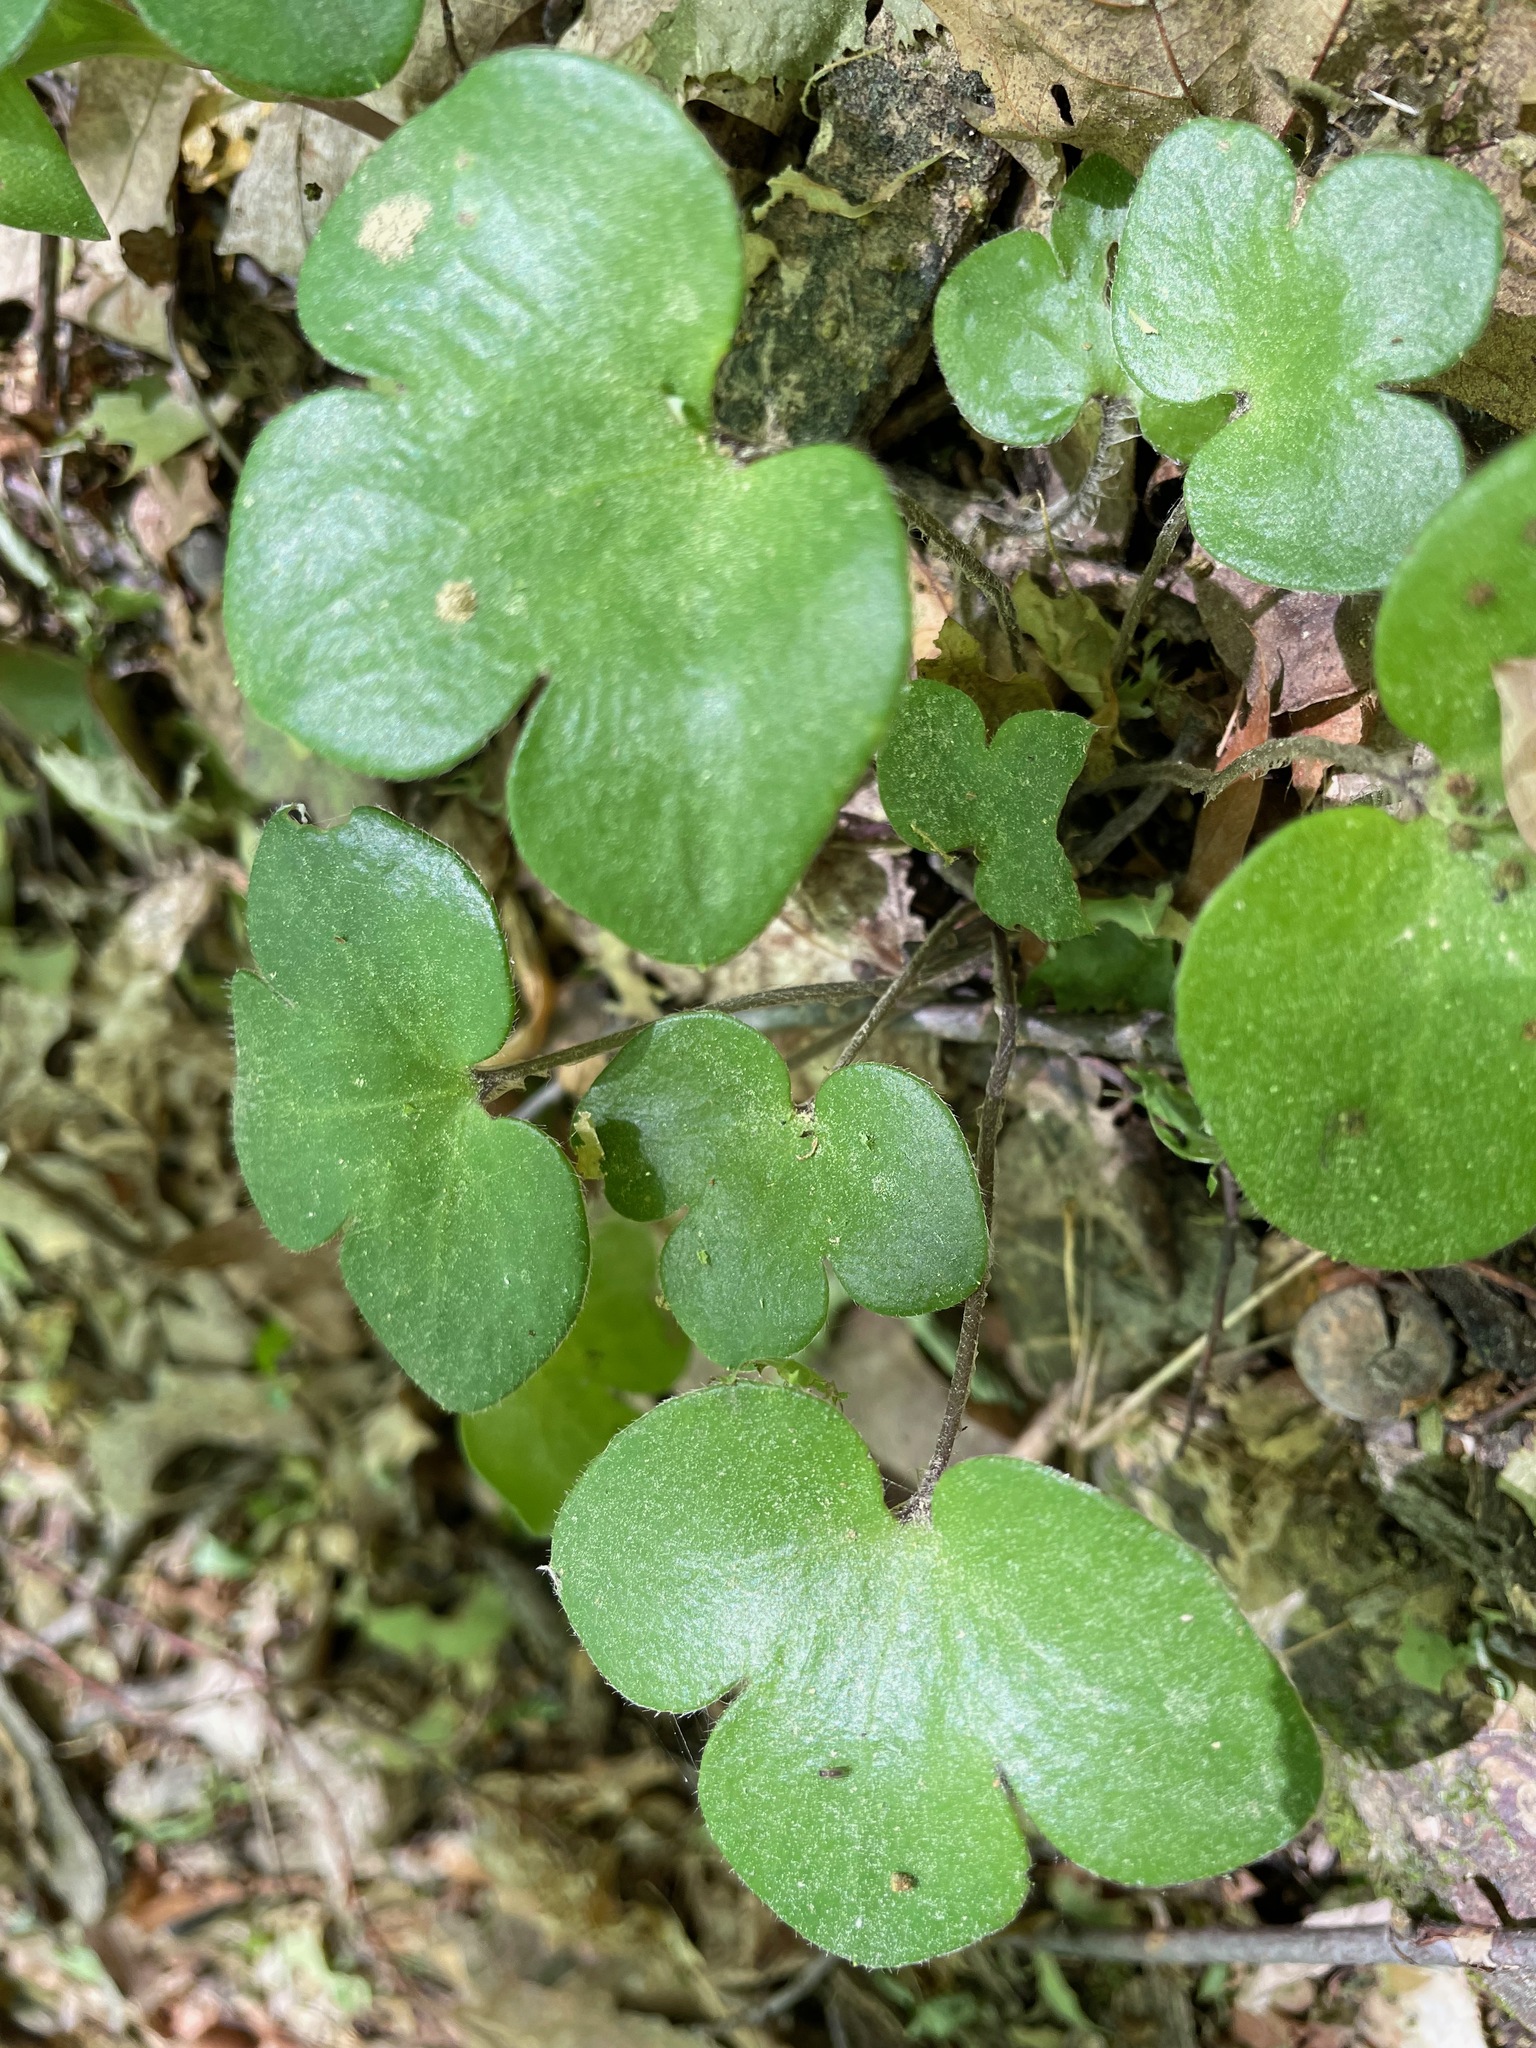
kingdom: Plantae
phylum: Tracheophyta
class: Magnoliopsida
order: Ranunculales
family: Ranunculaceae
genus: Hepatica
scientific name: Hepatica americana
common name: American hepatica
